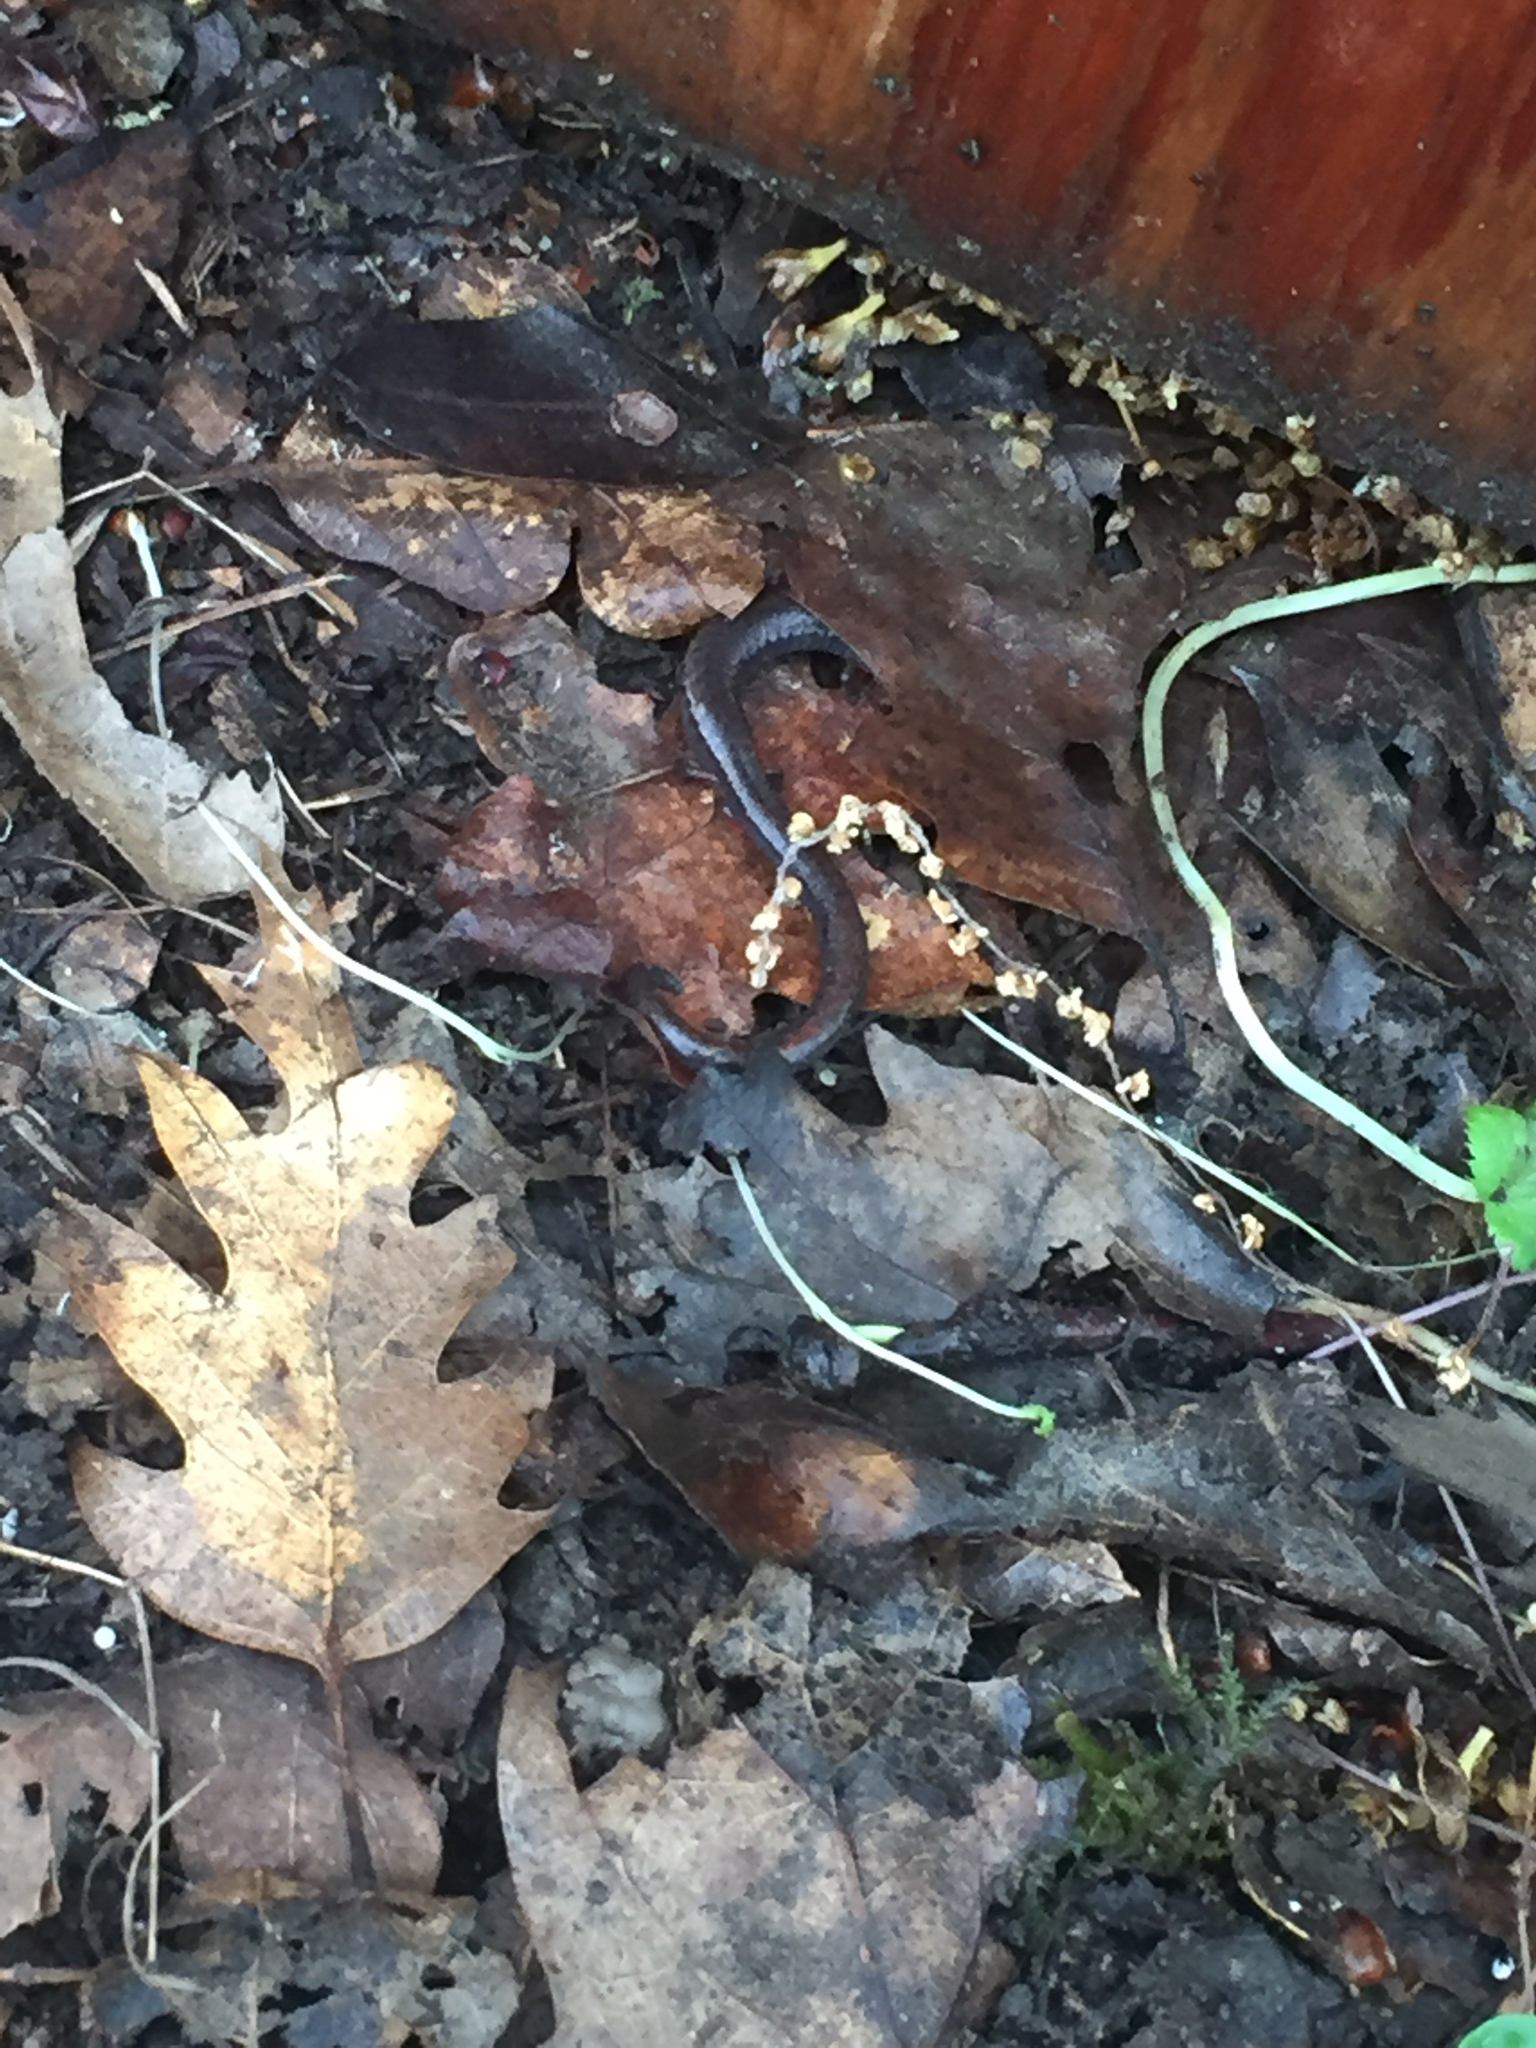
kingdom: Animalia
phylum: Chordata
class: Amphibia
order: Caudata
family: Plethodontidae
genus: Batrachoseps
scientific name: Batrachoseps attenuatus
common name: California slender salamander
